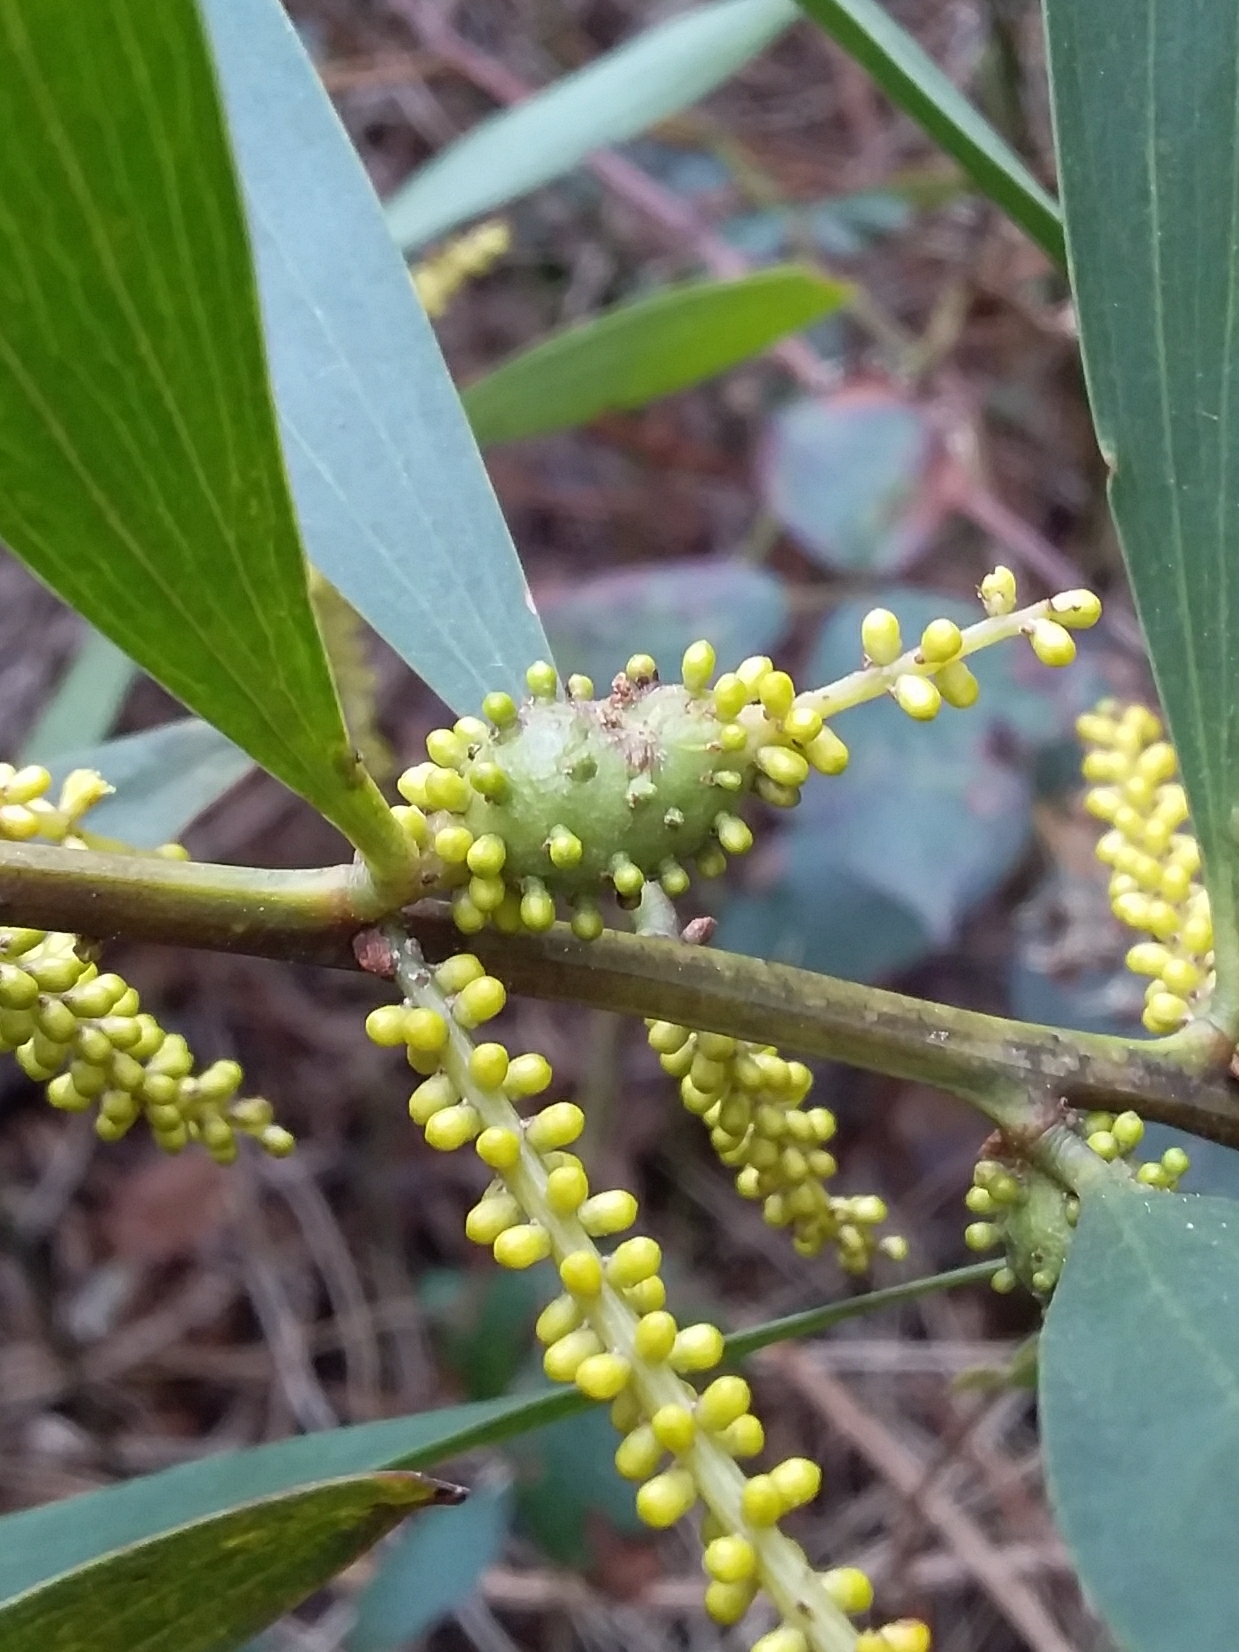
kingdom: Animalia
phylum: Arthropoda
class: Insecta
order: Hymenoptera
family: Pteromalidae
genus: Trichilogaster
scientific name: Trichilogaster acaciaelongifoliae
